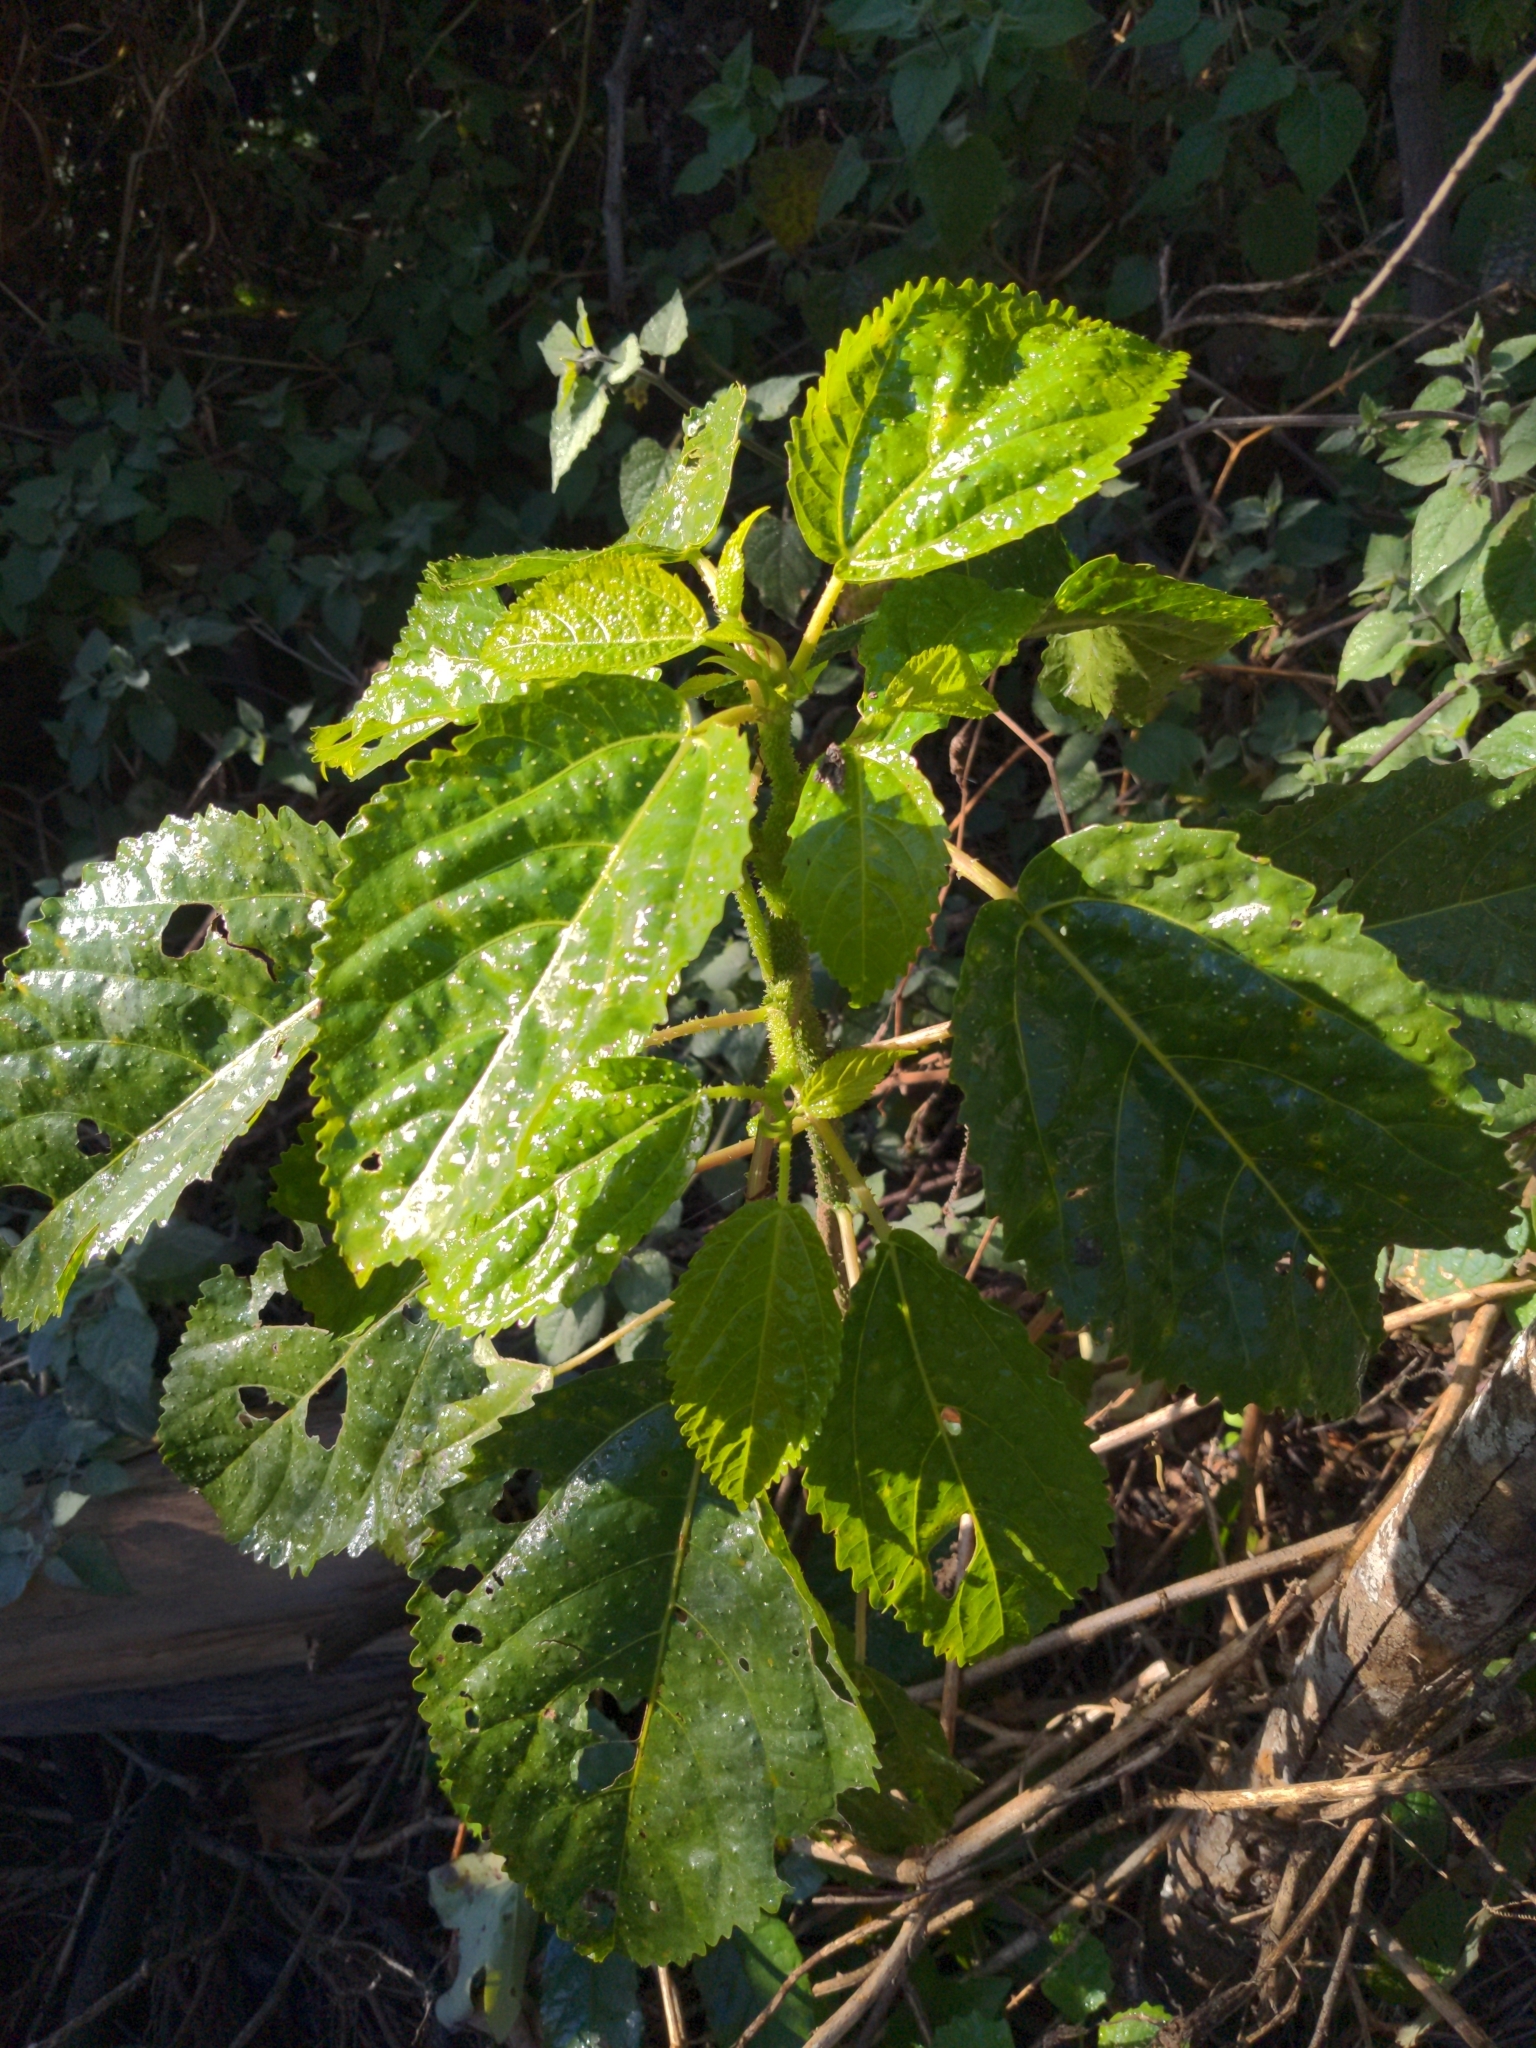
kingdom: Plantae
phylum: Tracheophyta
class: Magnoliopsida
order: Rosales
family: Urticaceae
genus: Dendrocnide
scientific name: Dendrocnide photiniphylla
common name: Shiny-leaved stinging tree
